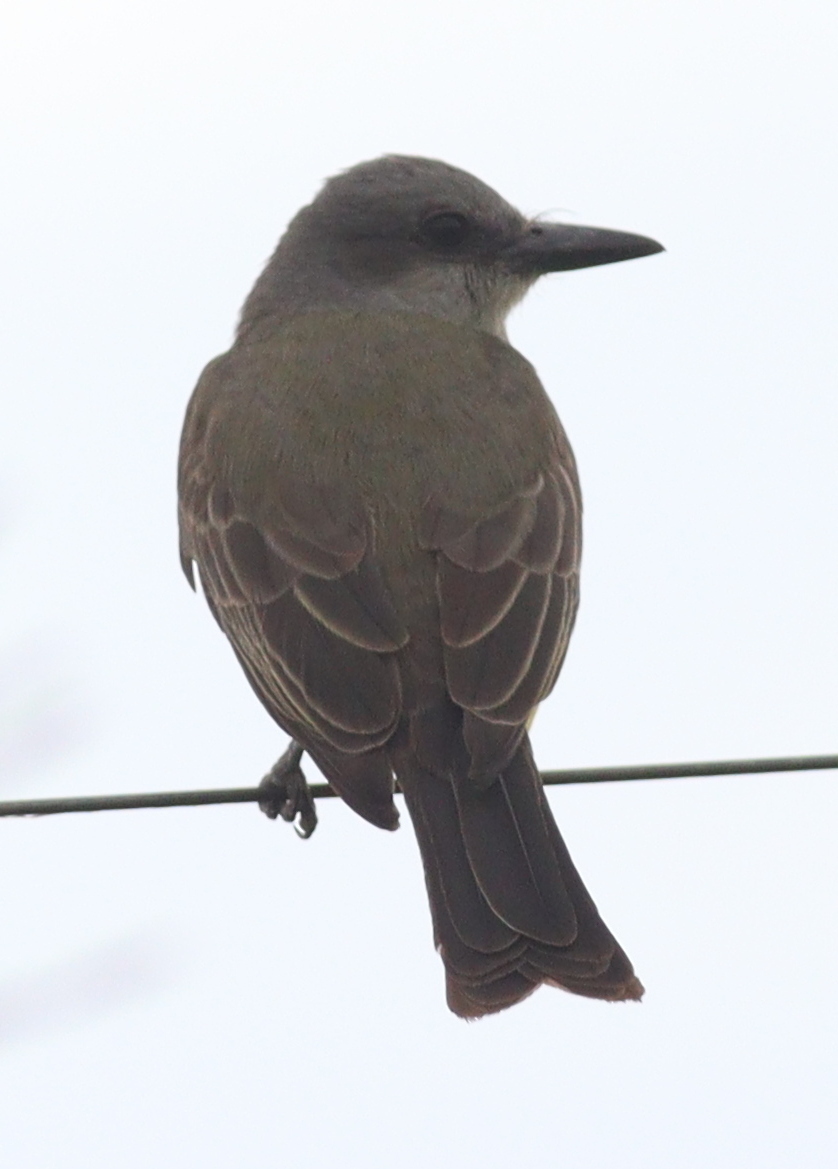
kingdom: Animalia
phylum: Chordata
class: Aves
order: Passeriformes
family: Tyrannidae
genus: Tyrannus
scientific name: Tyrannus melancholicus
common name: Tropical kingbird
